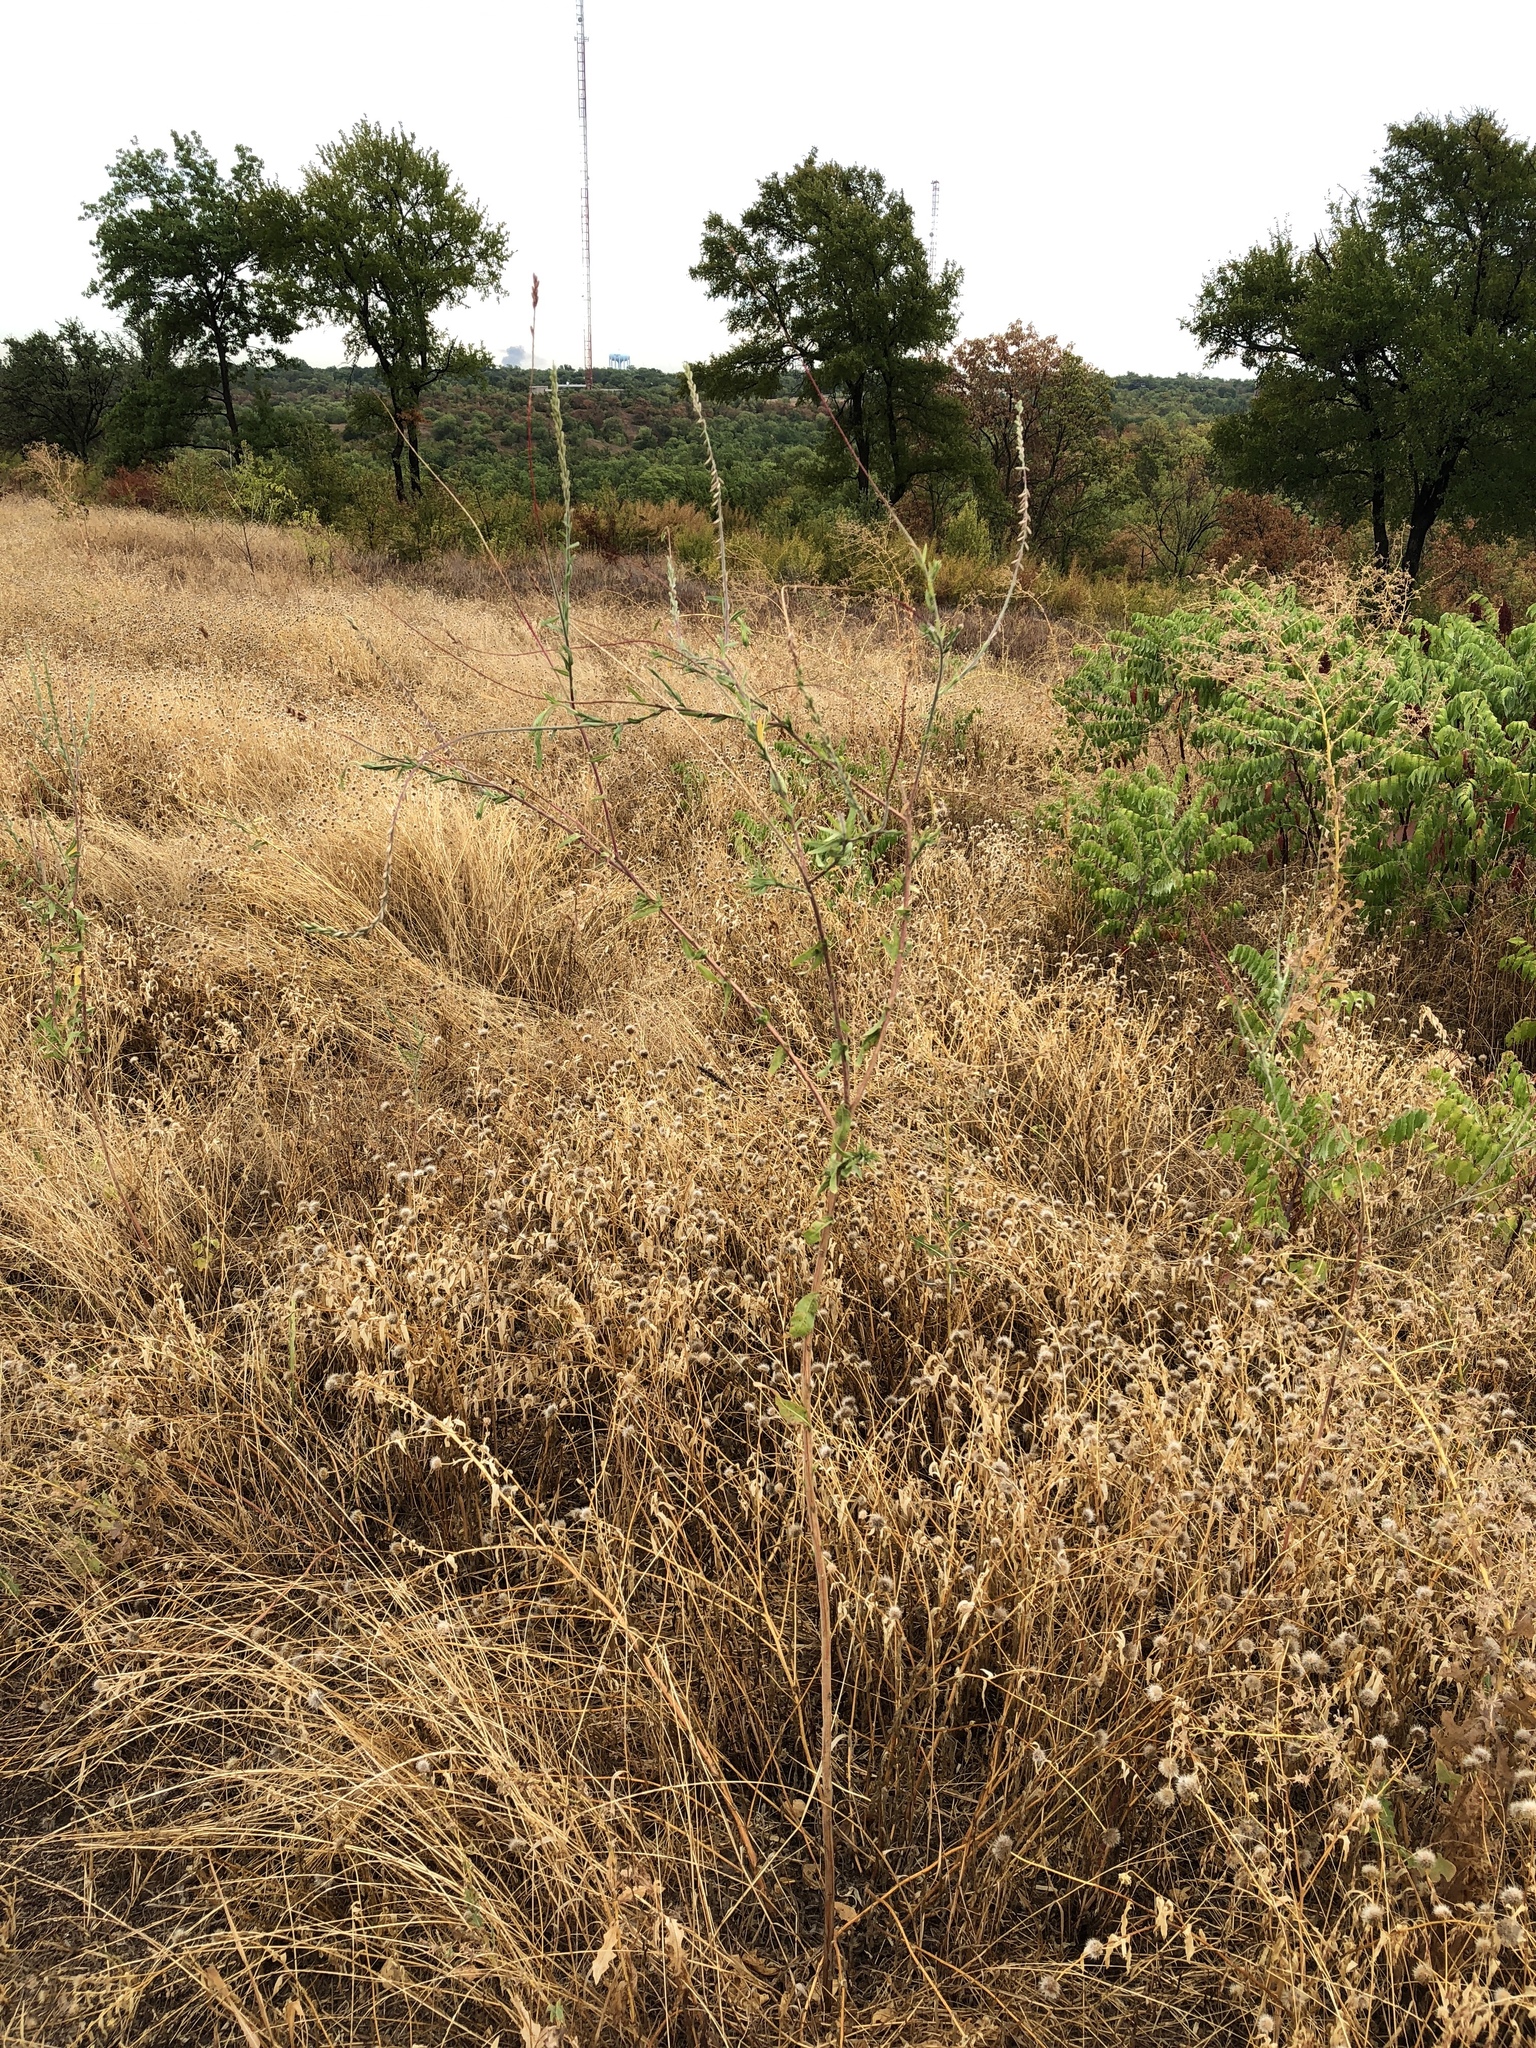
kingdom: Plantae
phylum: Tracheophyta
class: Magnoliopsida
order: Myrtales
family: Onagraceae
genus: Oenothera
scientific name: Oenothera curtiflora
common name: Velvetweed
